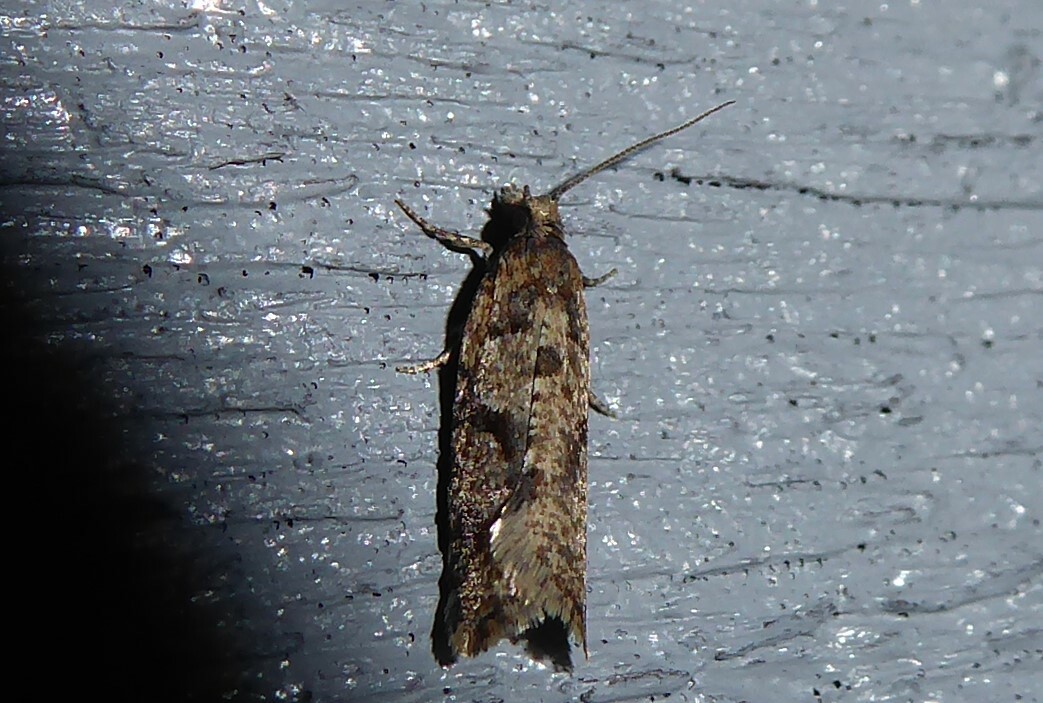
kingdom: Animalia
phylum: Arthropoda
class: Insecta
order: Lepidoptera
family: Tortricidae
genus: Capua
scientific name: Capua semiferana
